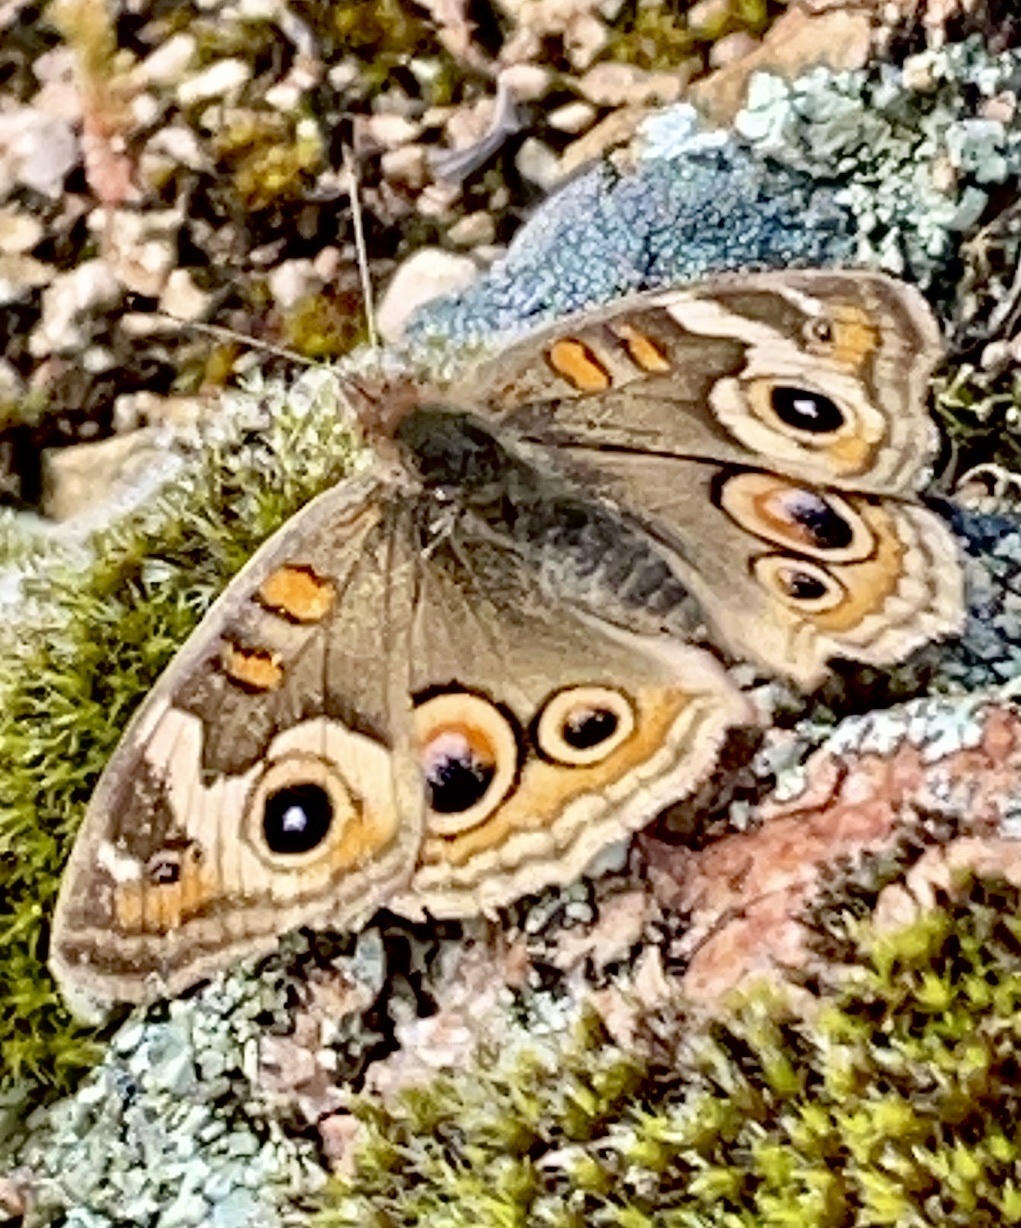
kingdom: Animalia
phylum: Arthropoda
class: Insecta
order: Lepidoptera
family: Nymphalidae
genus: Junonia
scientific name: Junonia grisea
